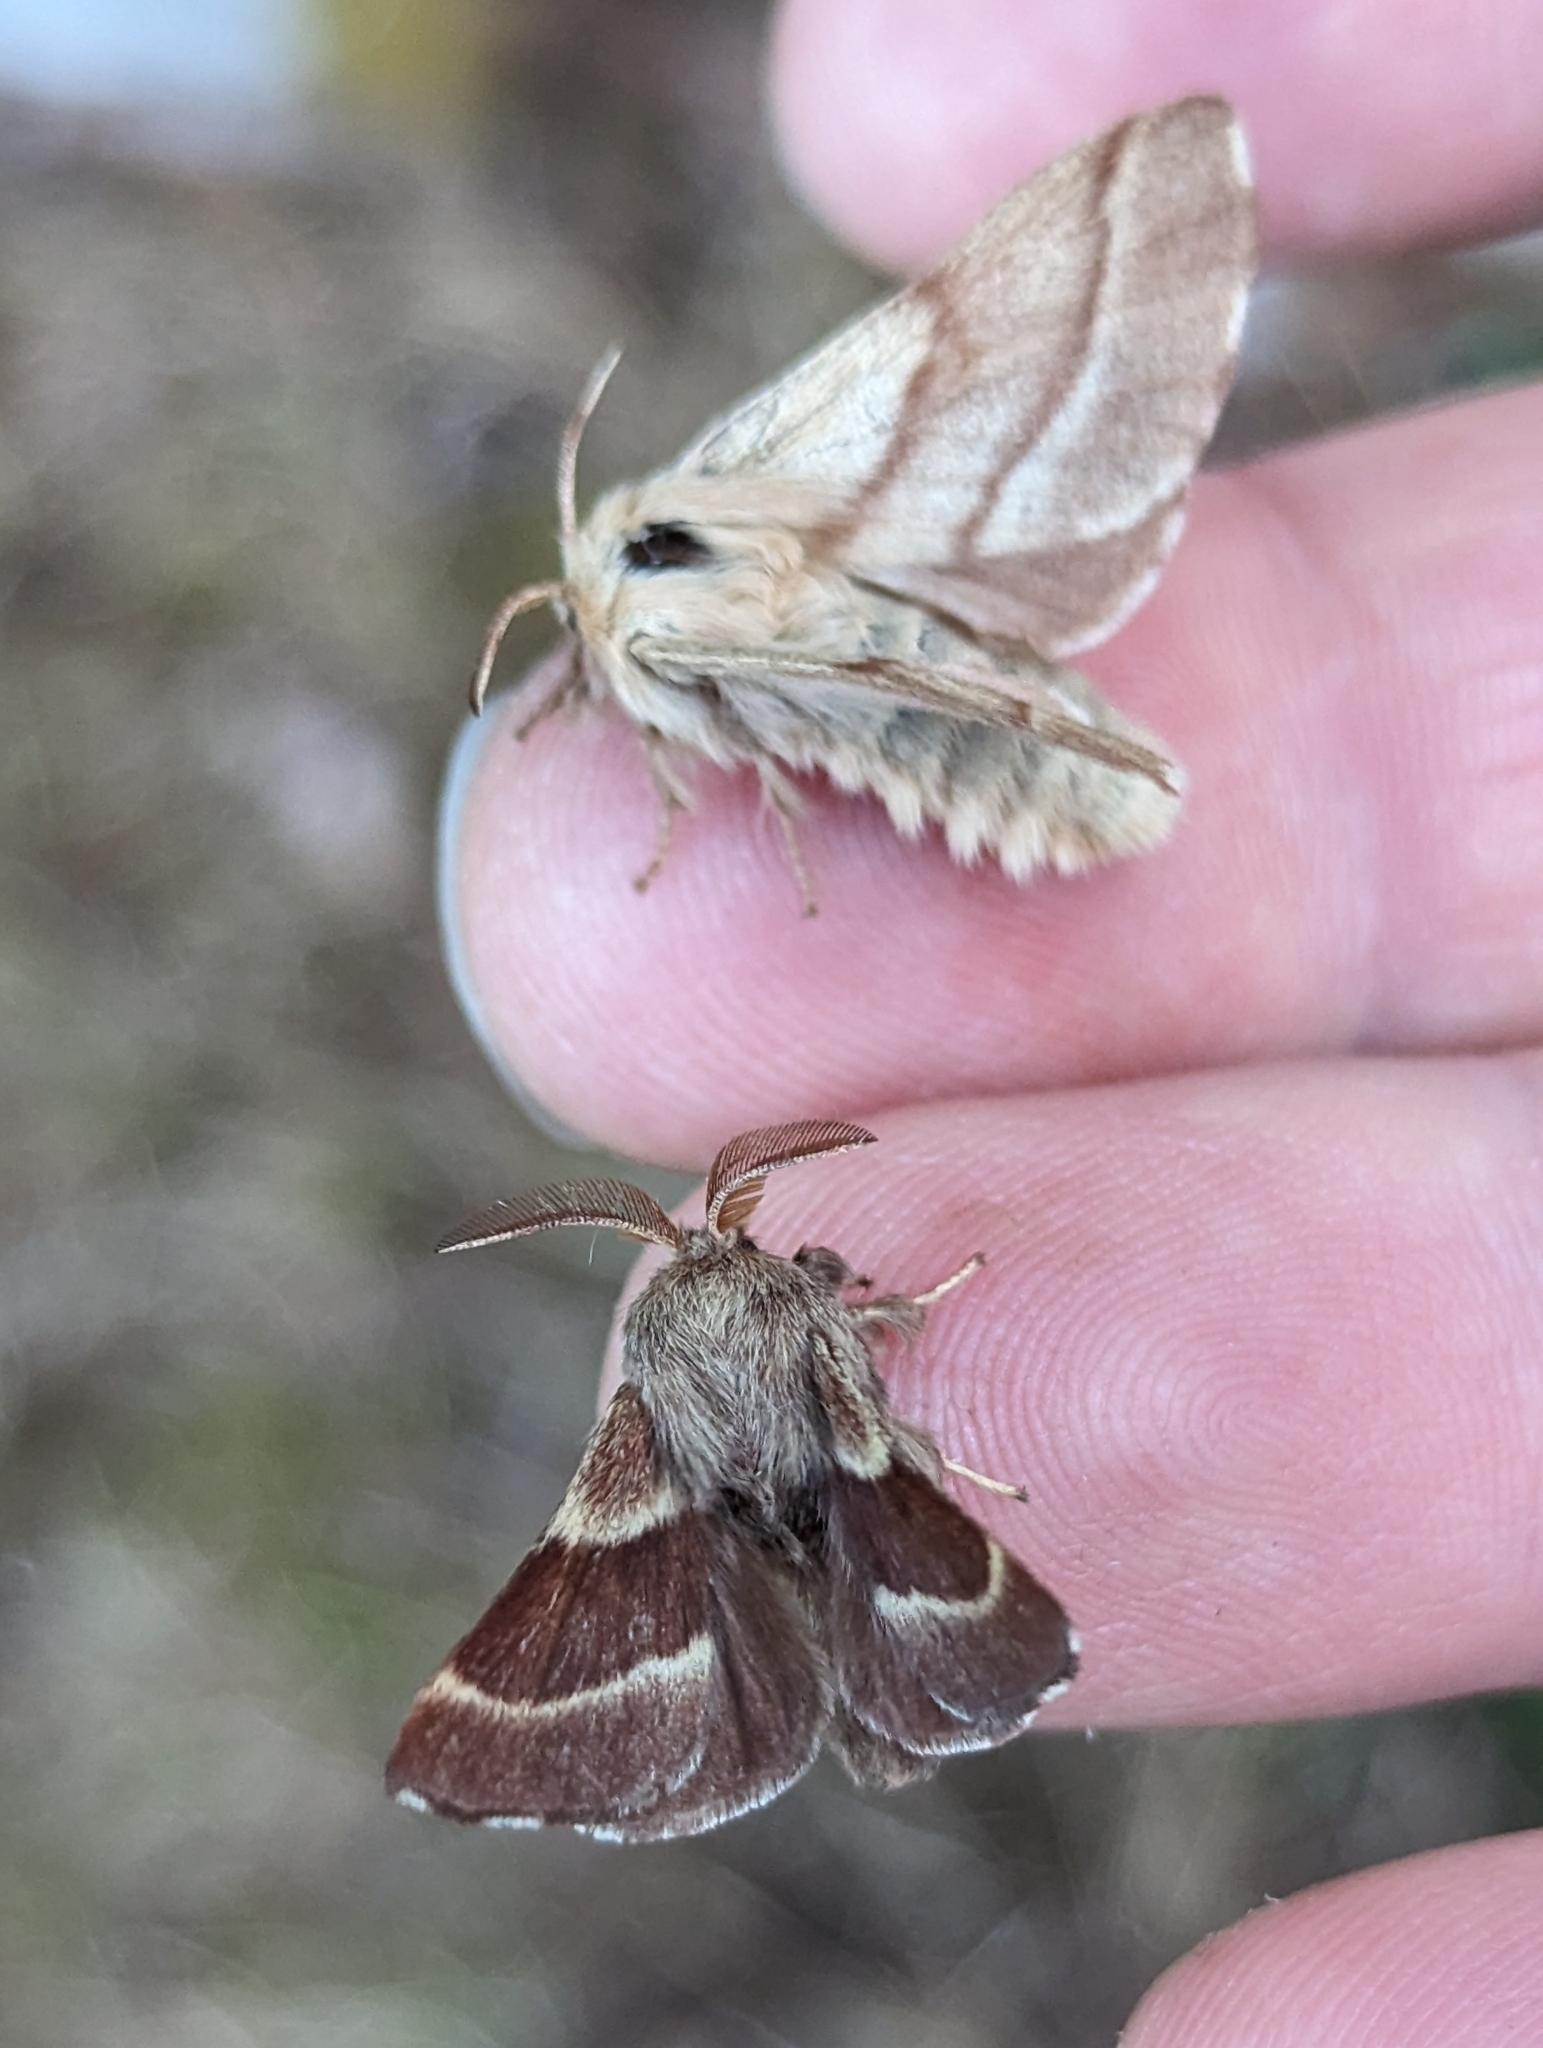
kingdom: Animalia
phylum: Arthropoda
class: Insecta
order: Lepidoptera
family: Lasiocampidae
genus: Malacosoma
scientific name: Malacosoma californica
